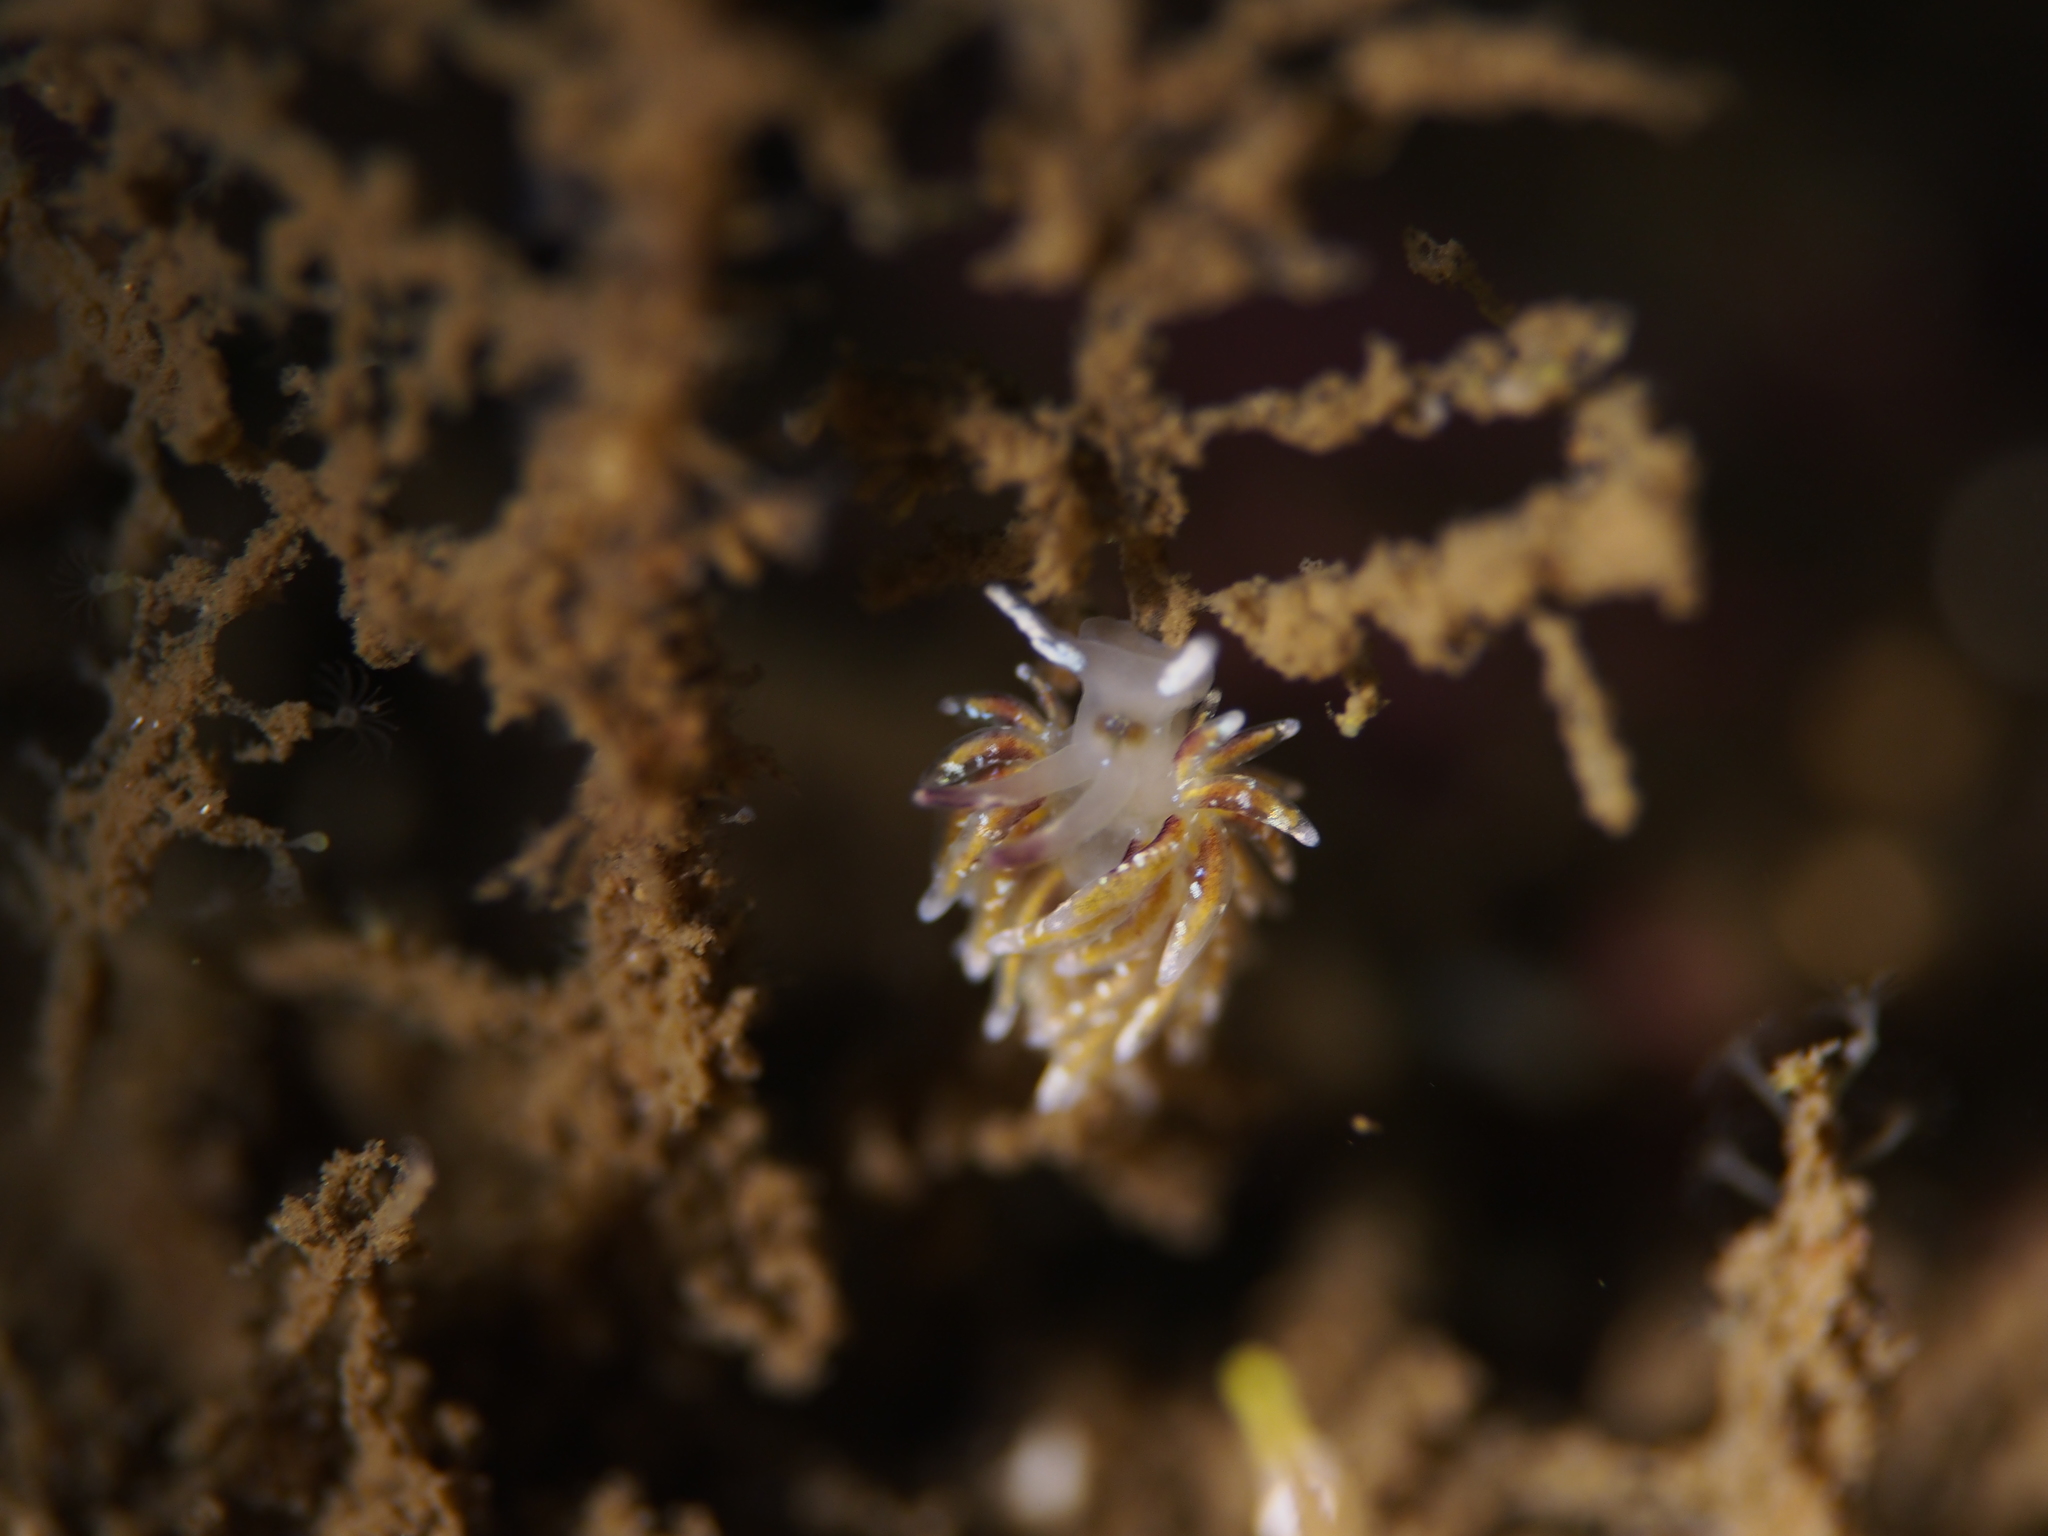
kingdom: Animalia
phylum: Mollusca
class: Gastropoda
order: Nudibranchia
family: Trinchesiidae
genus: Rubramoena
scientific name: Rubramoena rubescens
